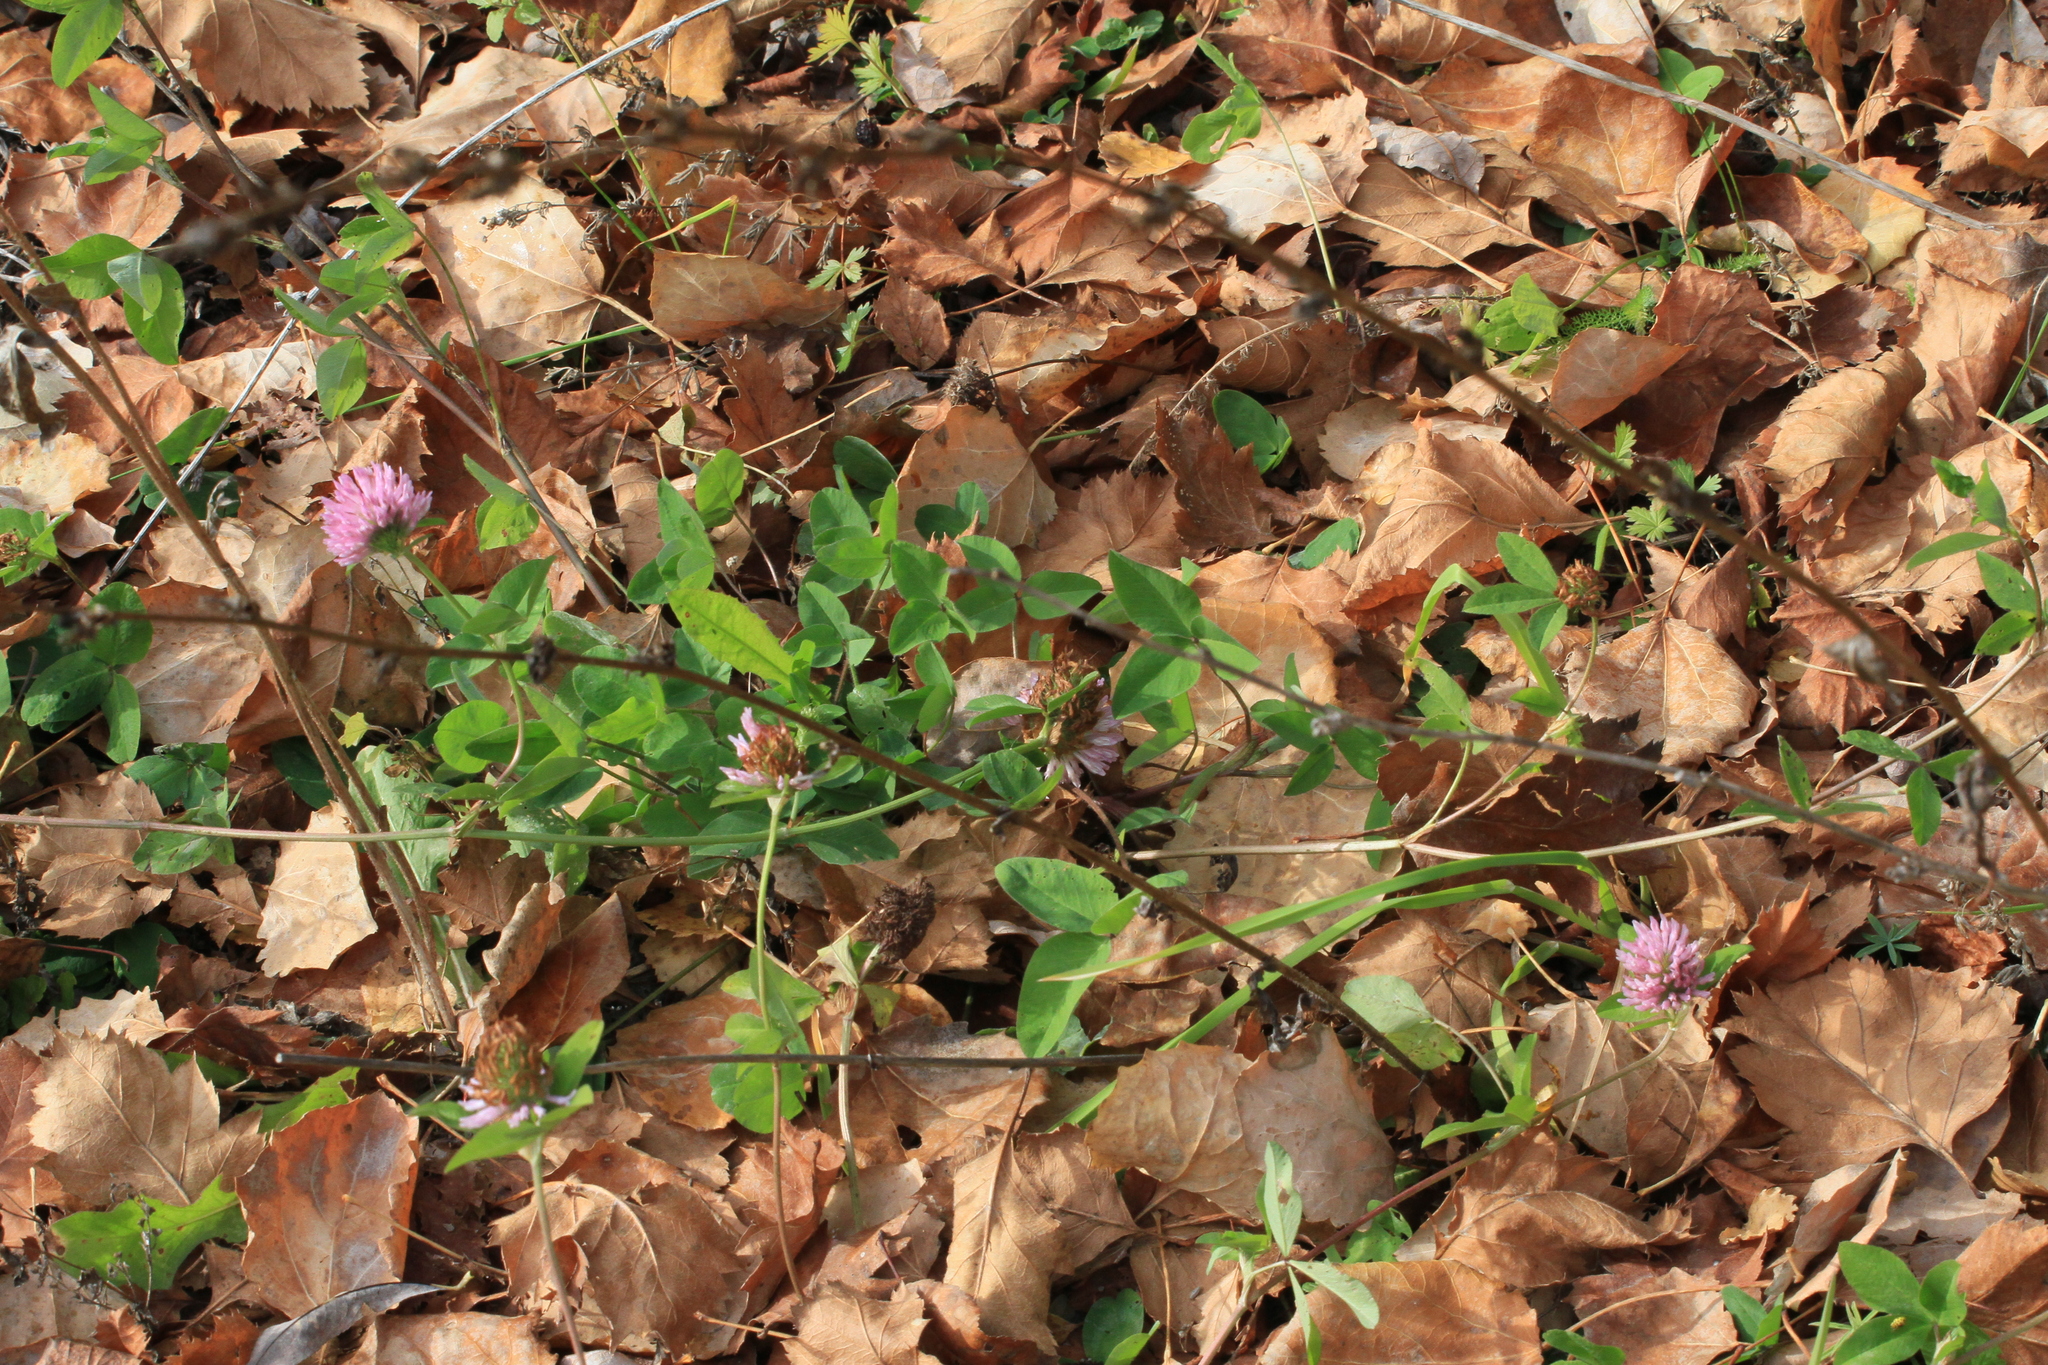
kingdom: Plantae
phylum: Tracheophyta
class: Magnoliopsida
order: Fabales
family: Fabaceae
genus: Trifolium
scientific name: Trifolium pratense
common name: Red clover
